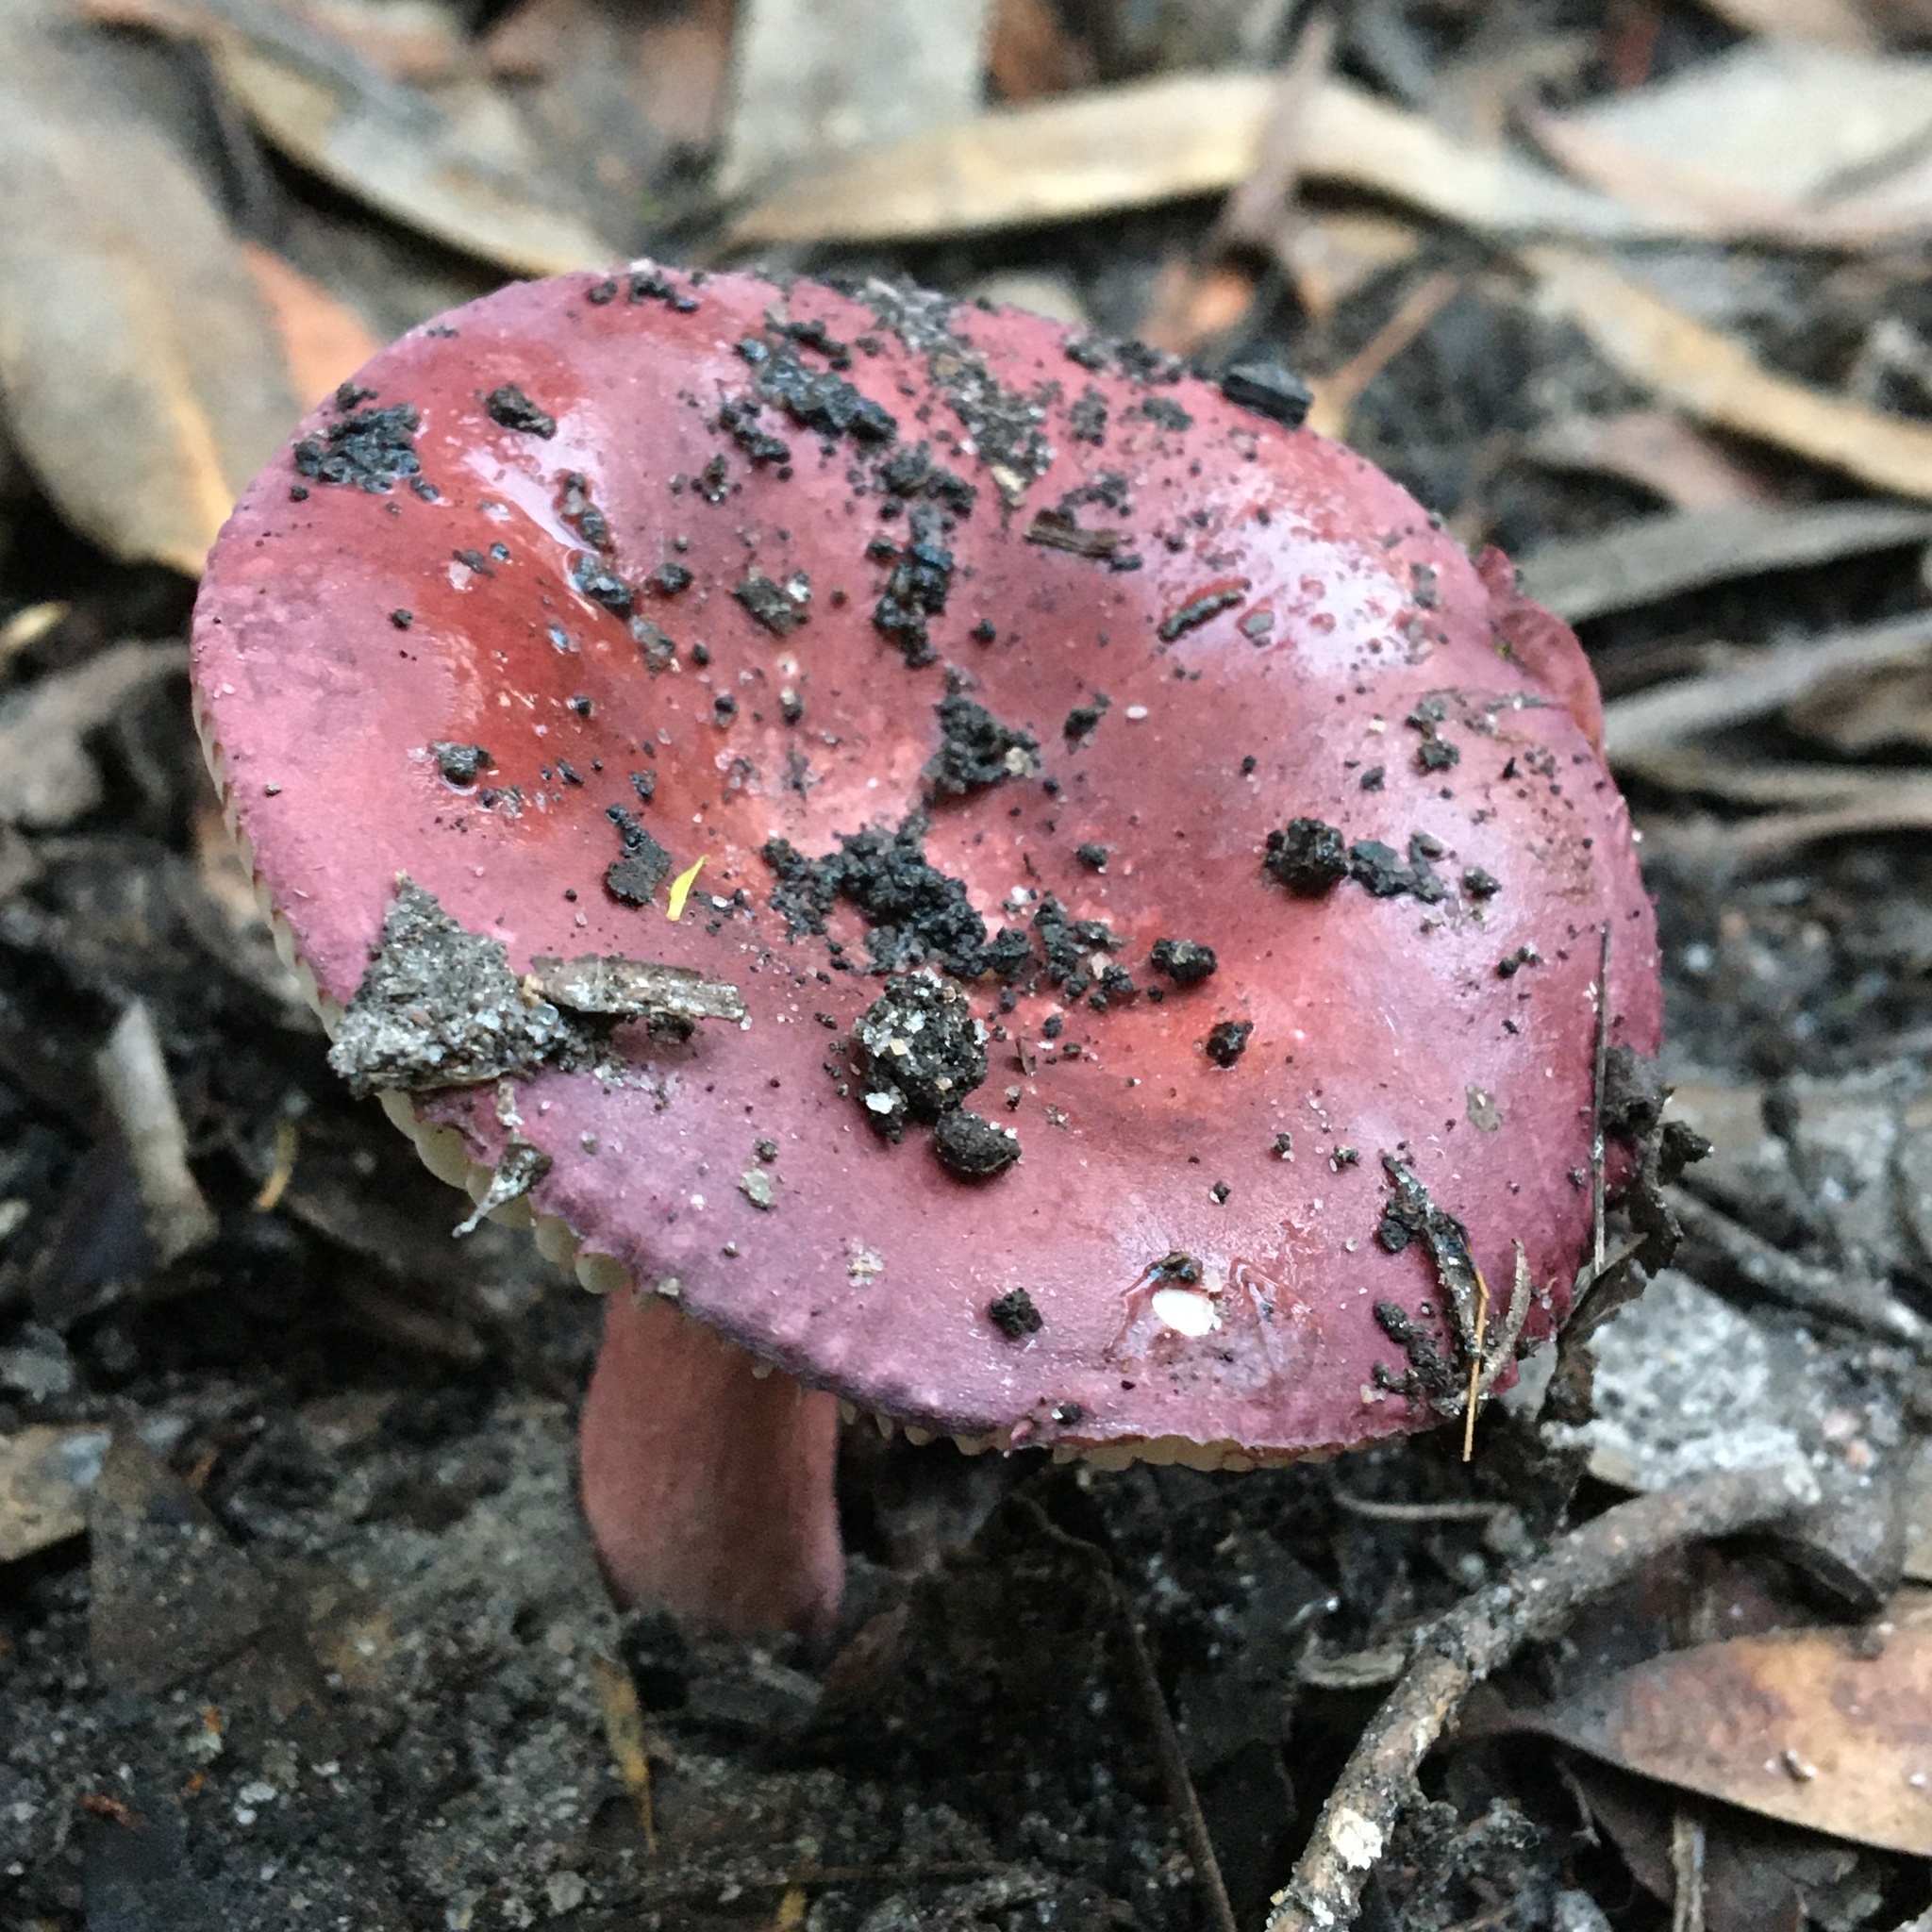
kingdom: Fungi
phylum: Basidiomycota
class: Agaricomycetes
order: Russulales
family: Russulaceae
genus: Russula
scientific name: Russula lenkunya
